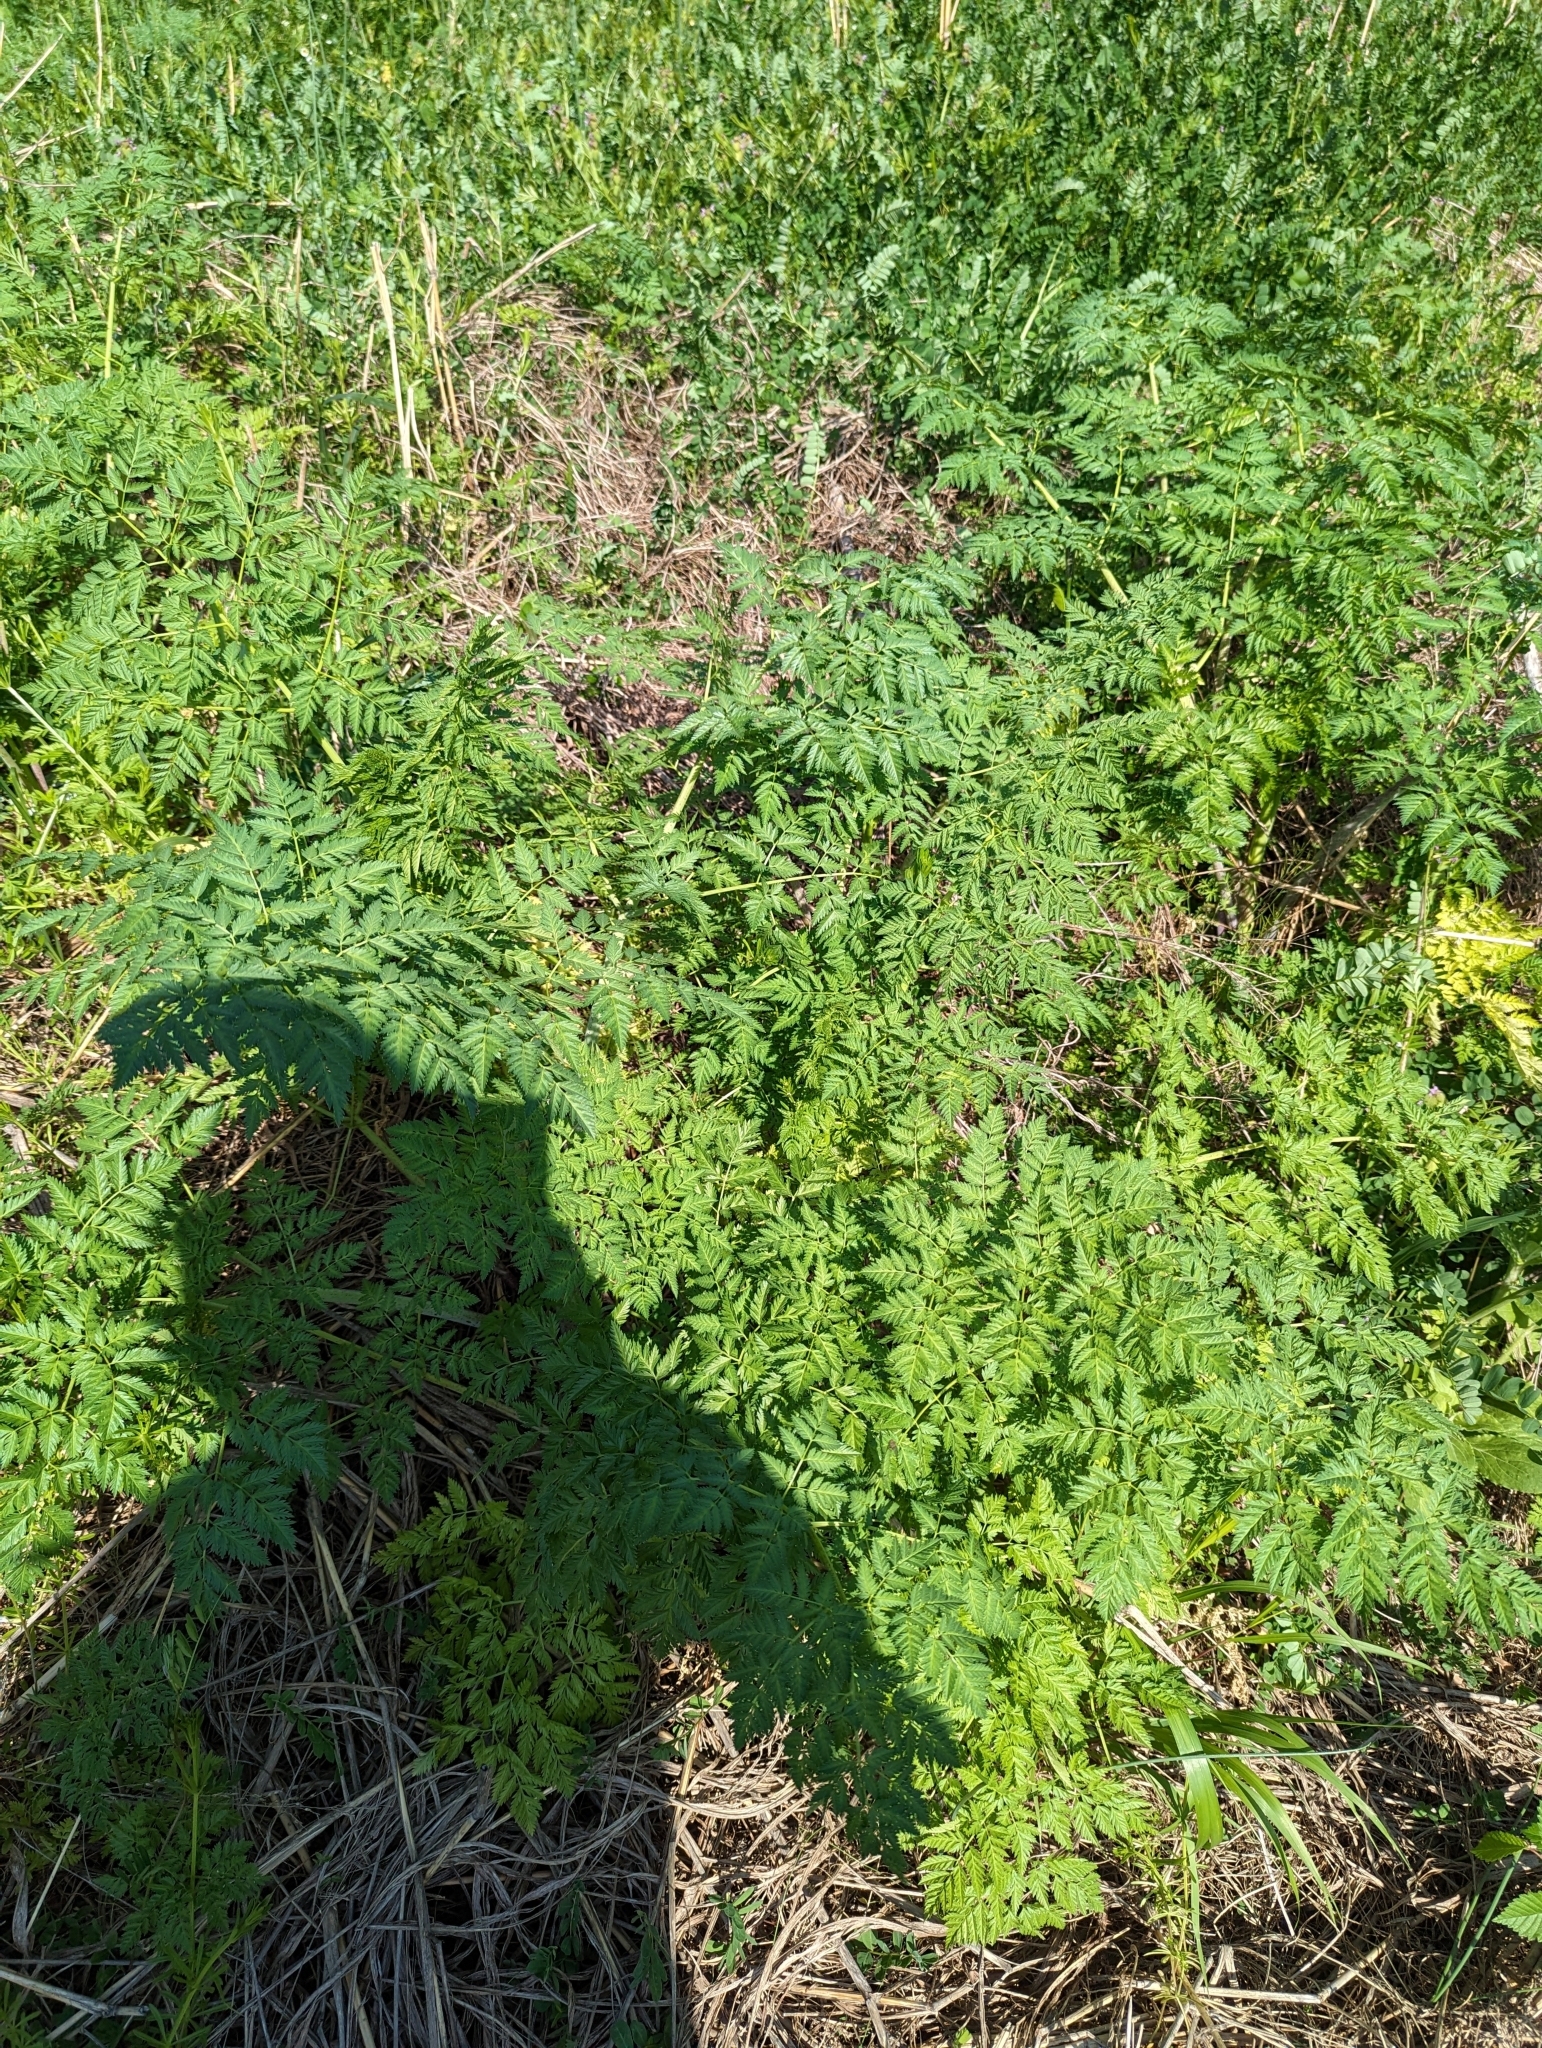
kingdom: Plantae
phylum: Tracheophyta
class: Magnoliopsida
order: Apiales
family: Apiaceae
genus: Conium
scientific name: Conium maculatum
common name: Hemlock
